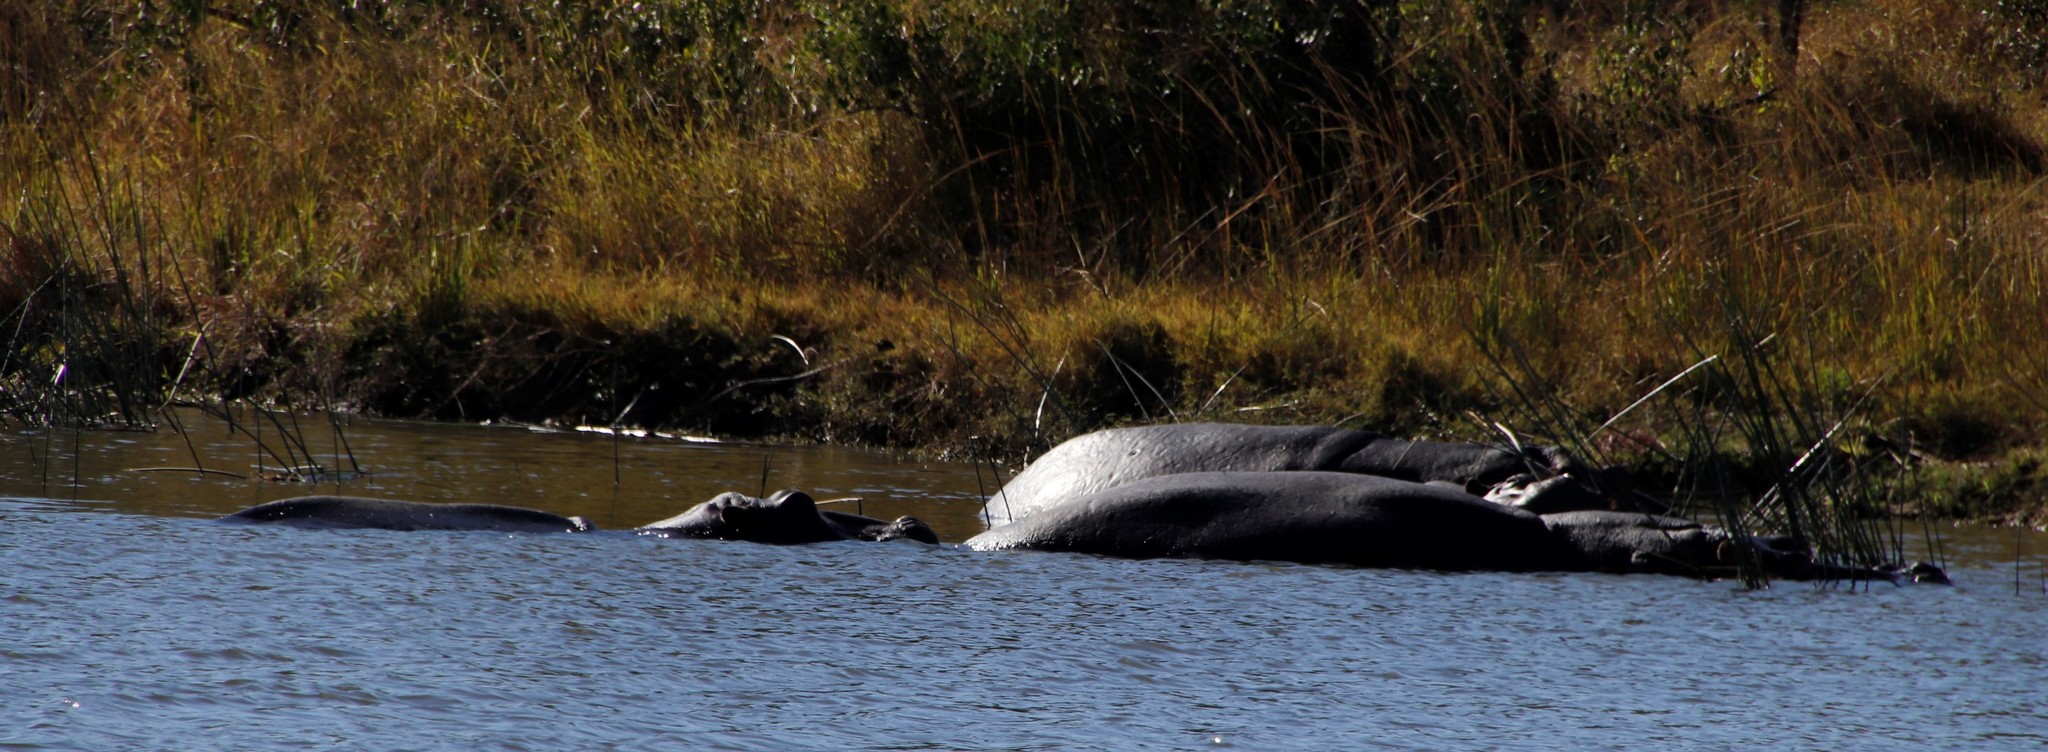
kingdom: Animalia
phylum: Chordata
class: Mammalia
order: Artiodactyla
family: Hippopotamidae
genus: Hippopotamus
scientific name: Hippopotamus amphibius
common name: Common hippopotamus
